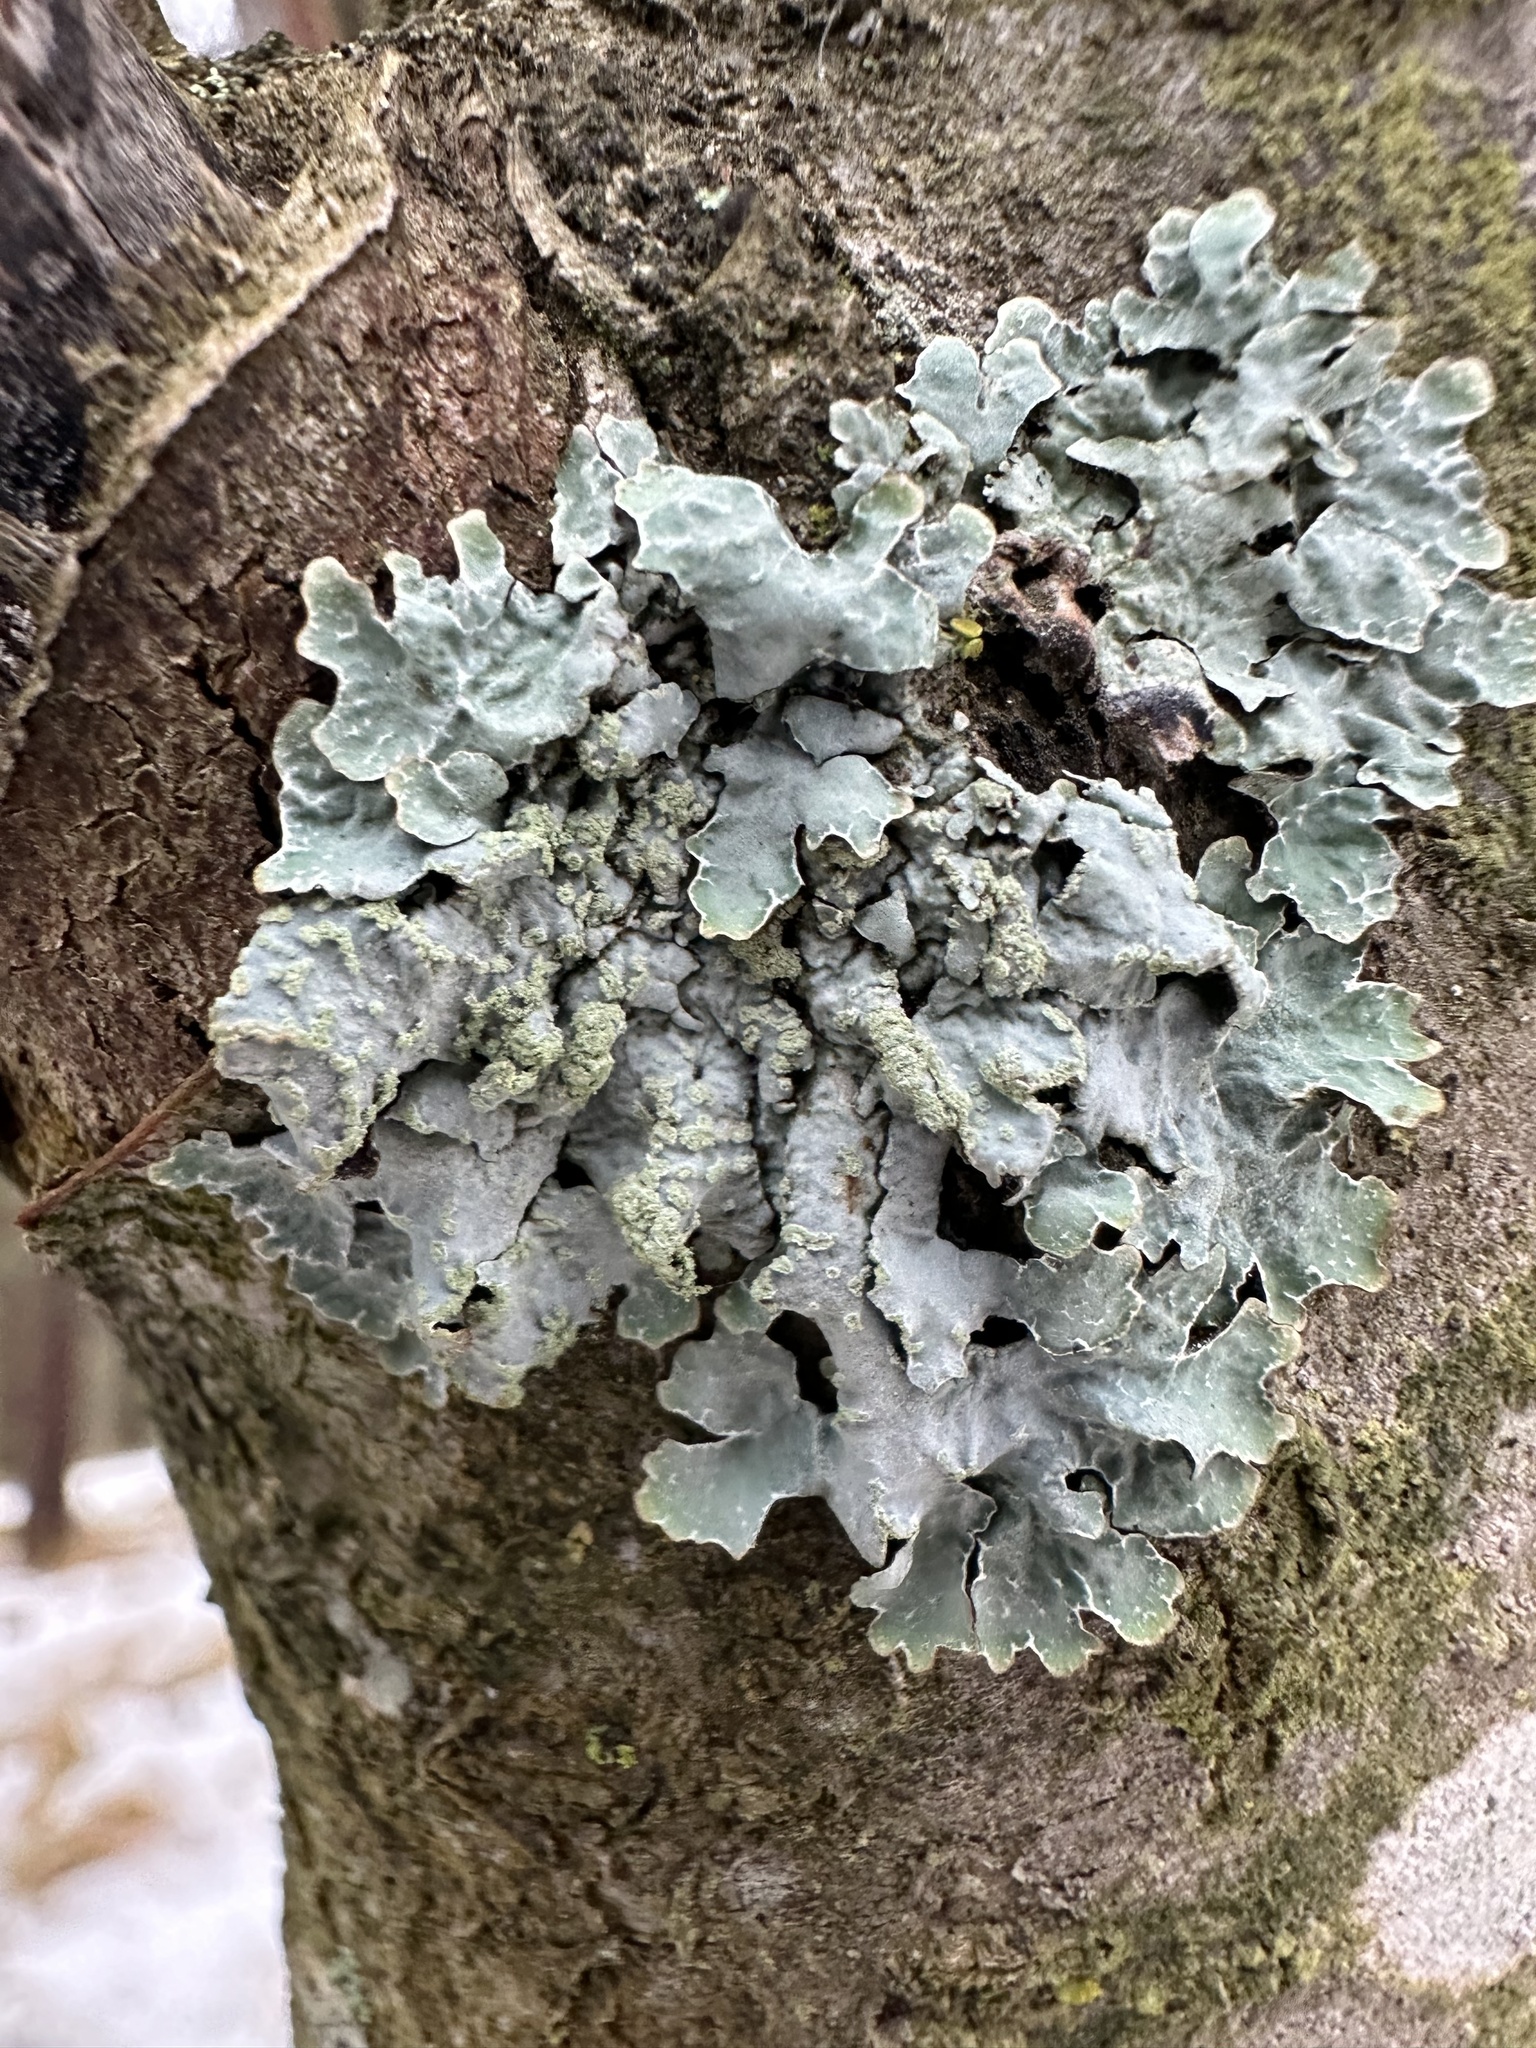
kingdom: Fungi
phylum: Ascomycota
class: Lecanoromycetes
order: Lecanorales
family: Parmeliaceae
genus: Parmelia
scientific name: Parmelia sulcata
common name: Netted shield lichen
